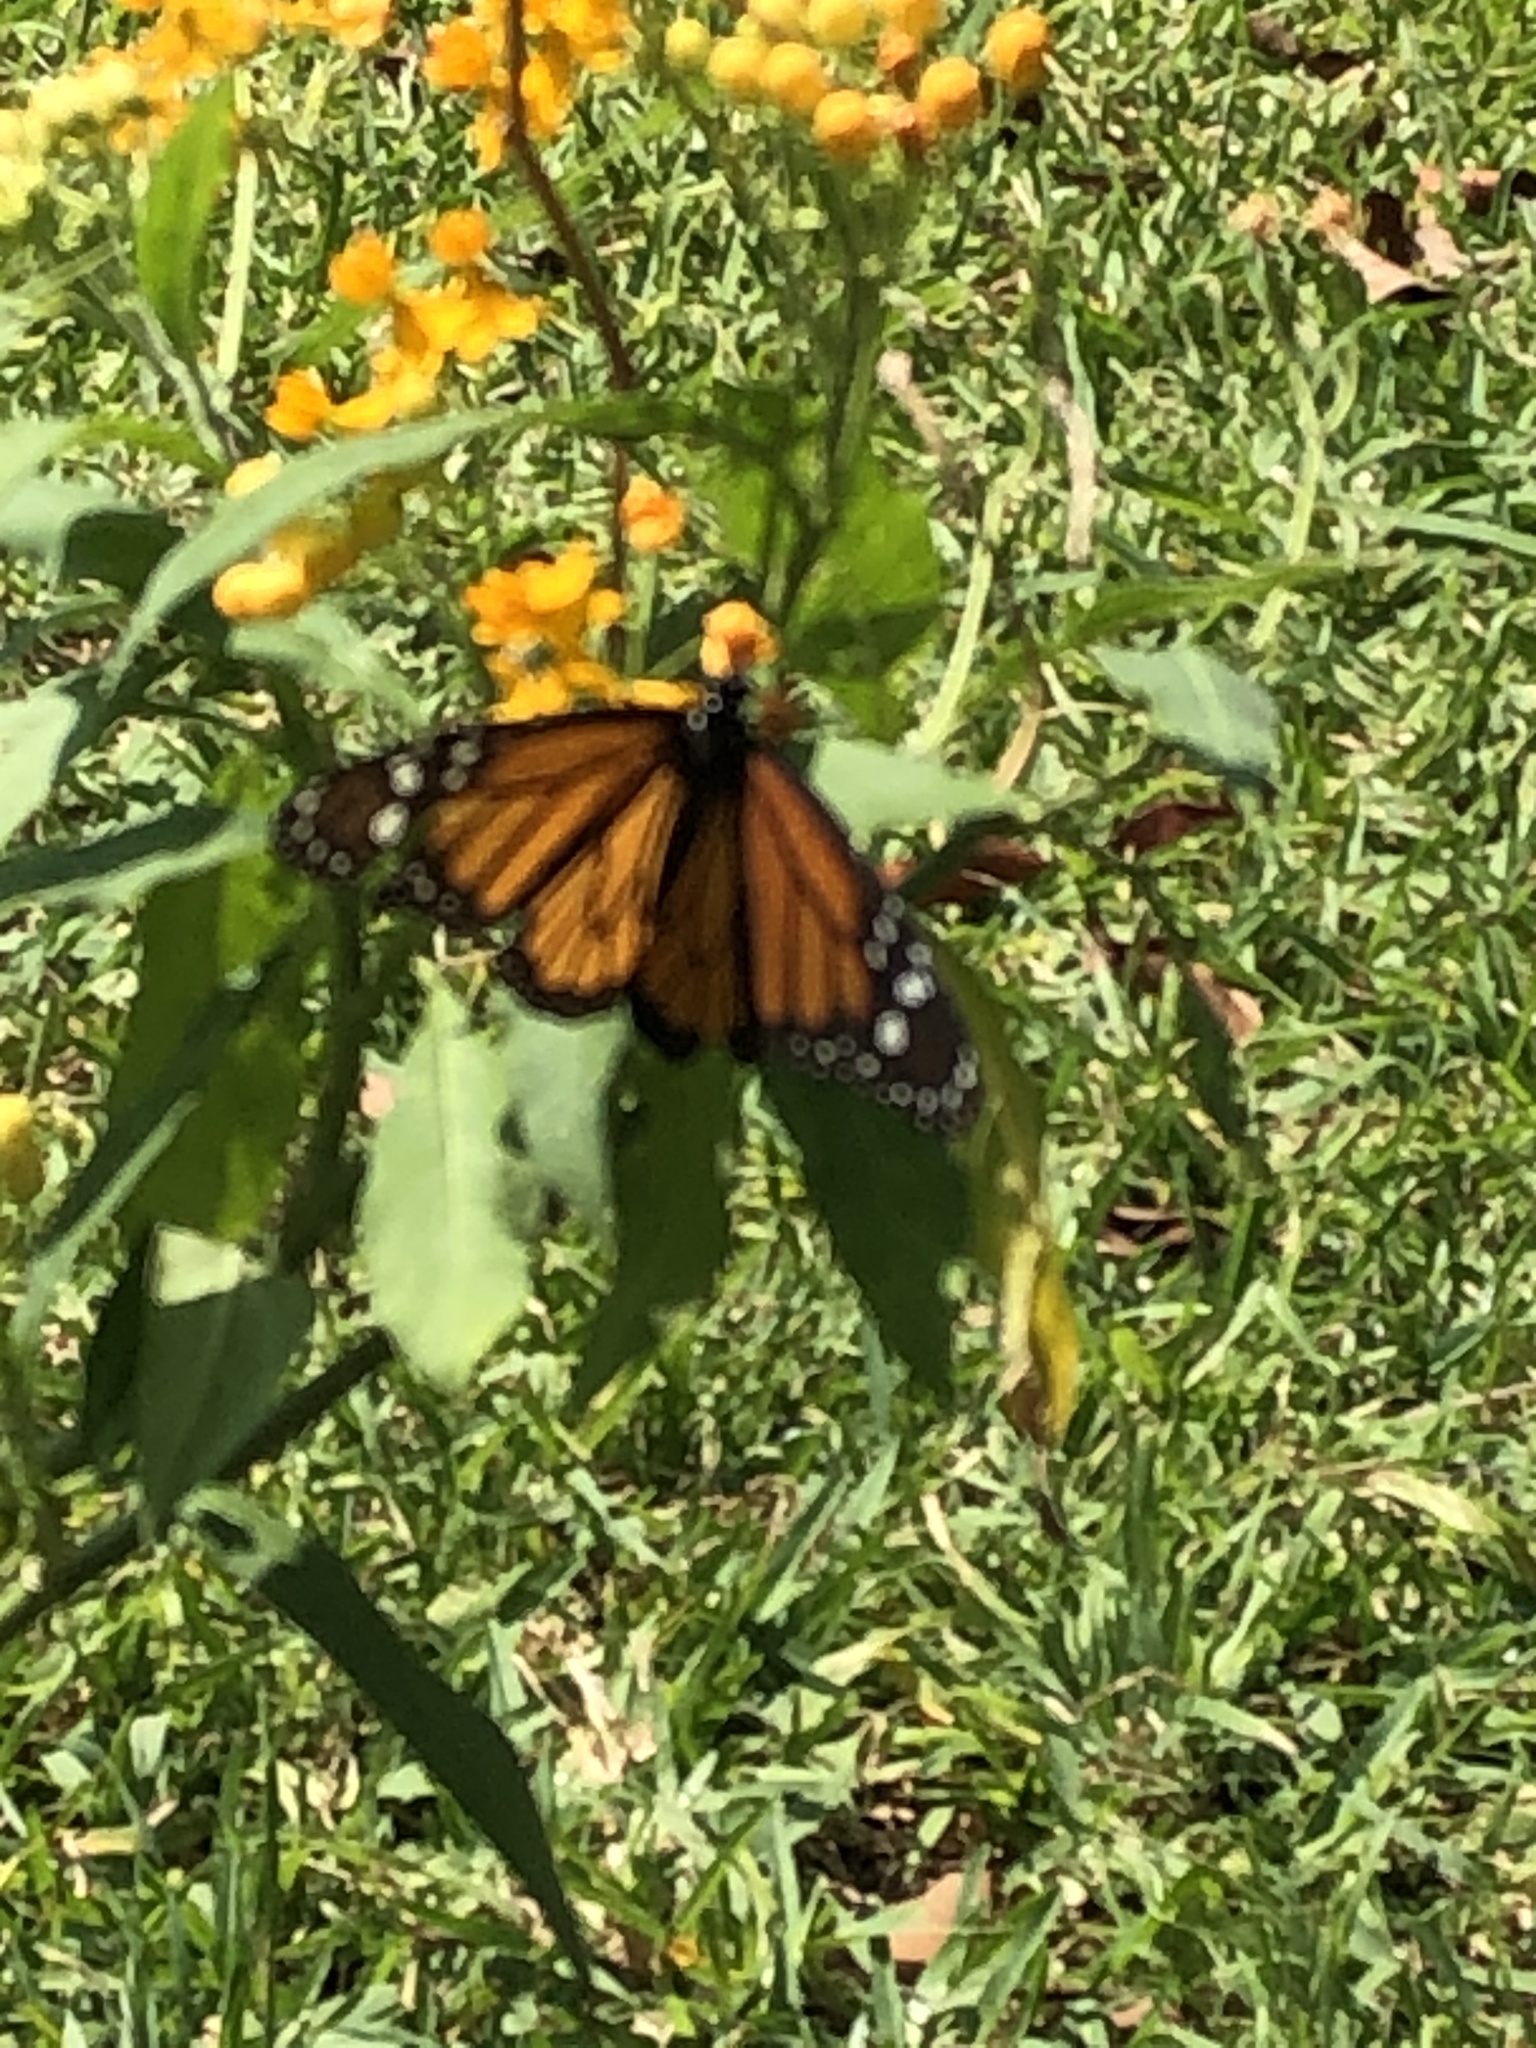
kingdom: Animalia
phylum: Arthropoda
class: Insecta
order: Lepidoptera
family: Nymphalidae
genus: Danaus
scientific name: Danaus plexippus
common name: Monarch
